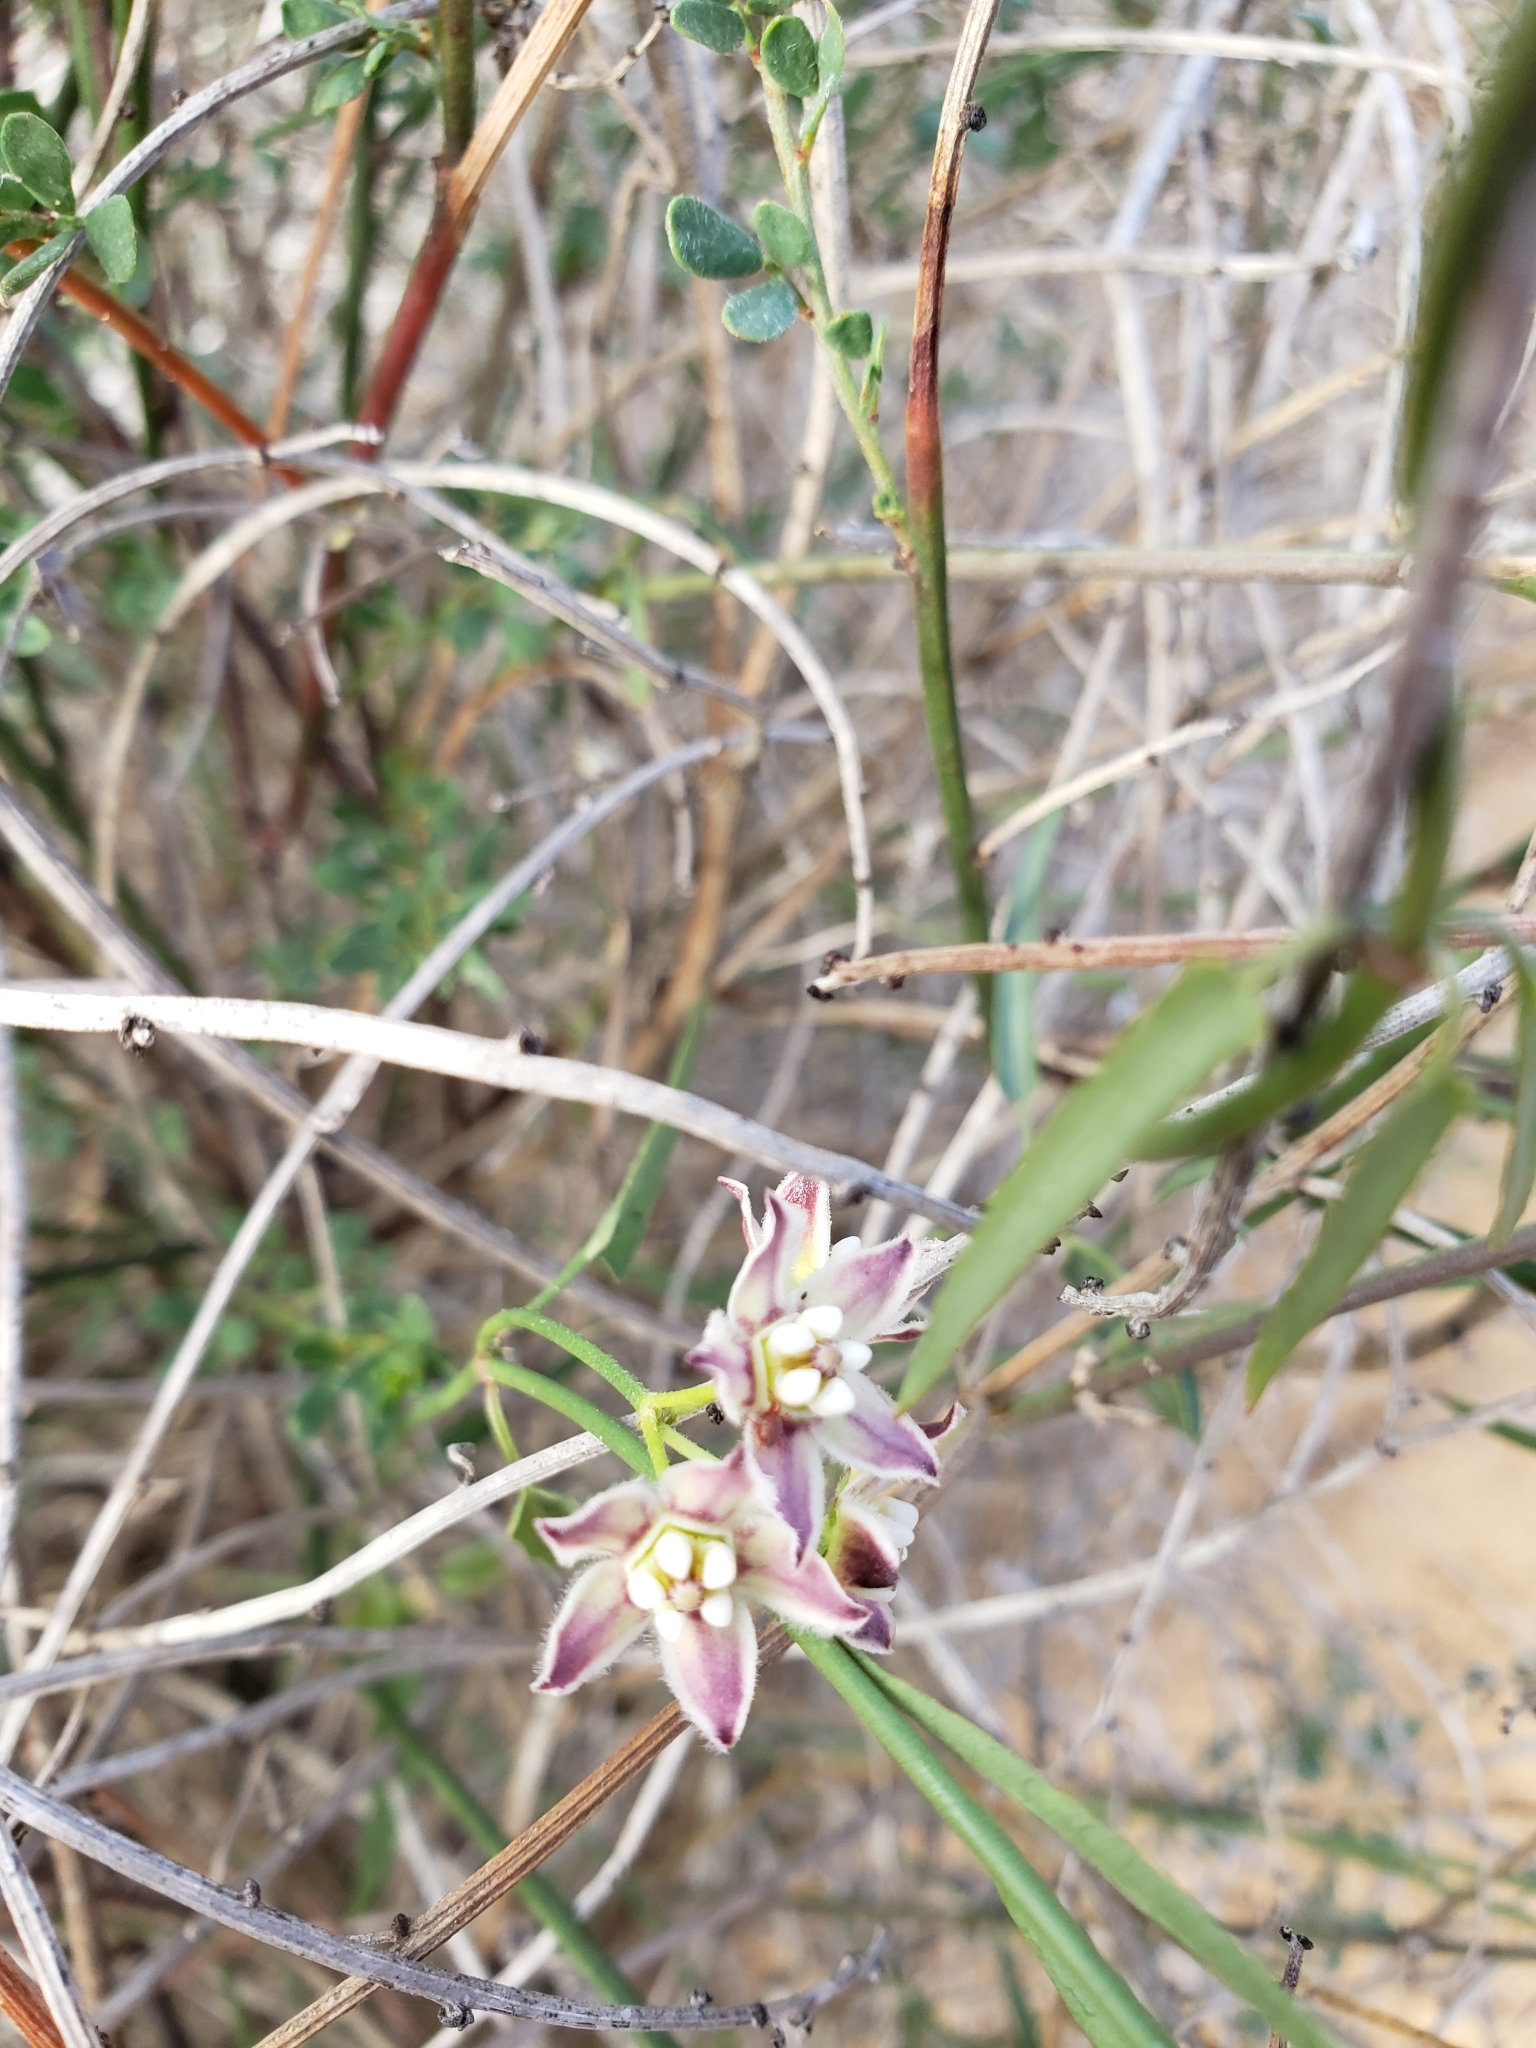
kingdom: Plantae
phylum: Tracheophyta
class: Magnoliopsida
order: Gentianales
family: Apocynaceae
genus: Funastrum
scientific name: Funastrum heterophyllum
